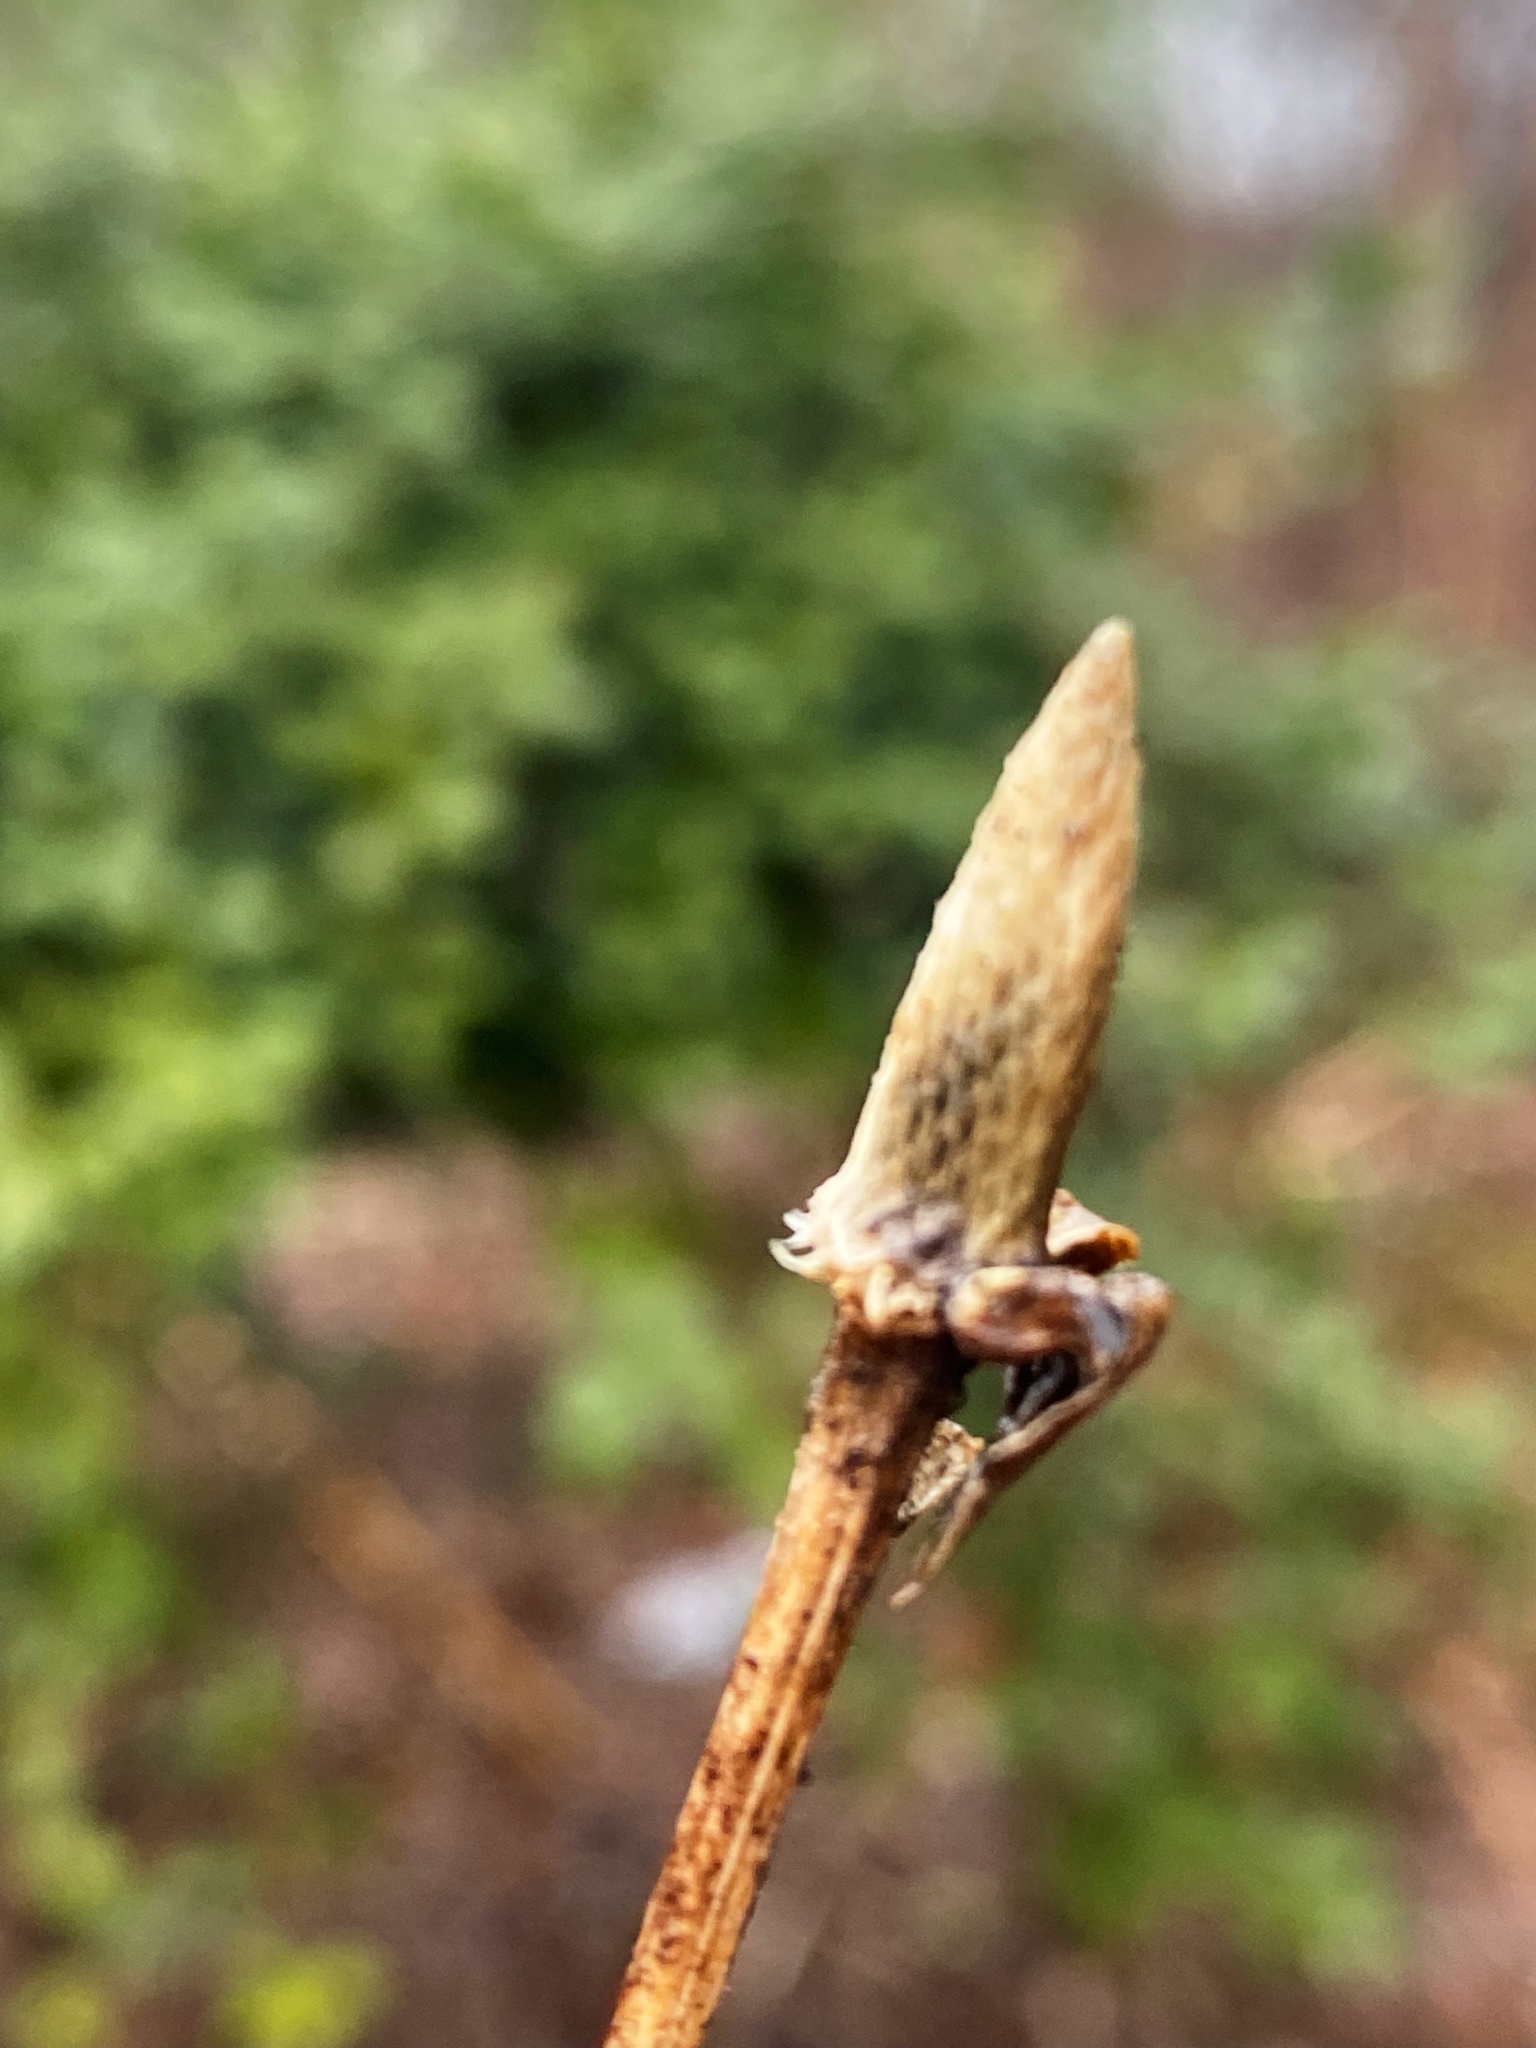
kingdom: Plantae
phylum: Tracheophyta
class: Magnoliopsida
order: Asterales
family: Asteraceae
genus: Rudbeckia
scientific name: Rudbeckia laciniata
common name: Coneflower
